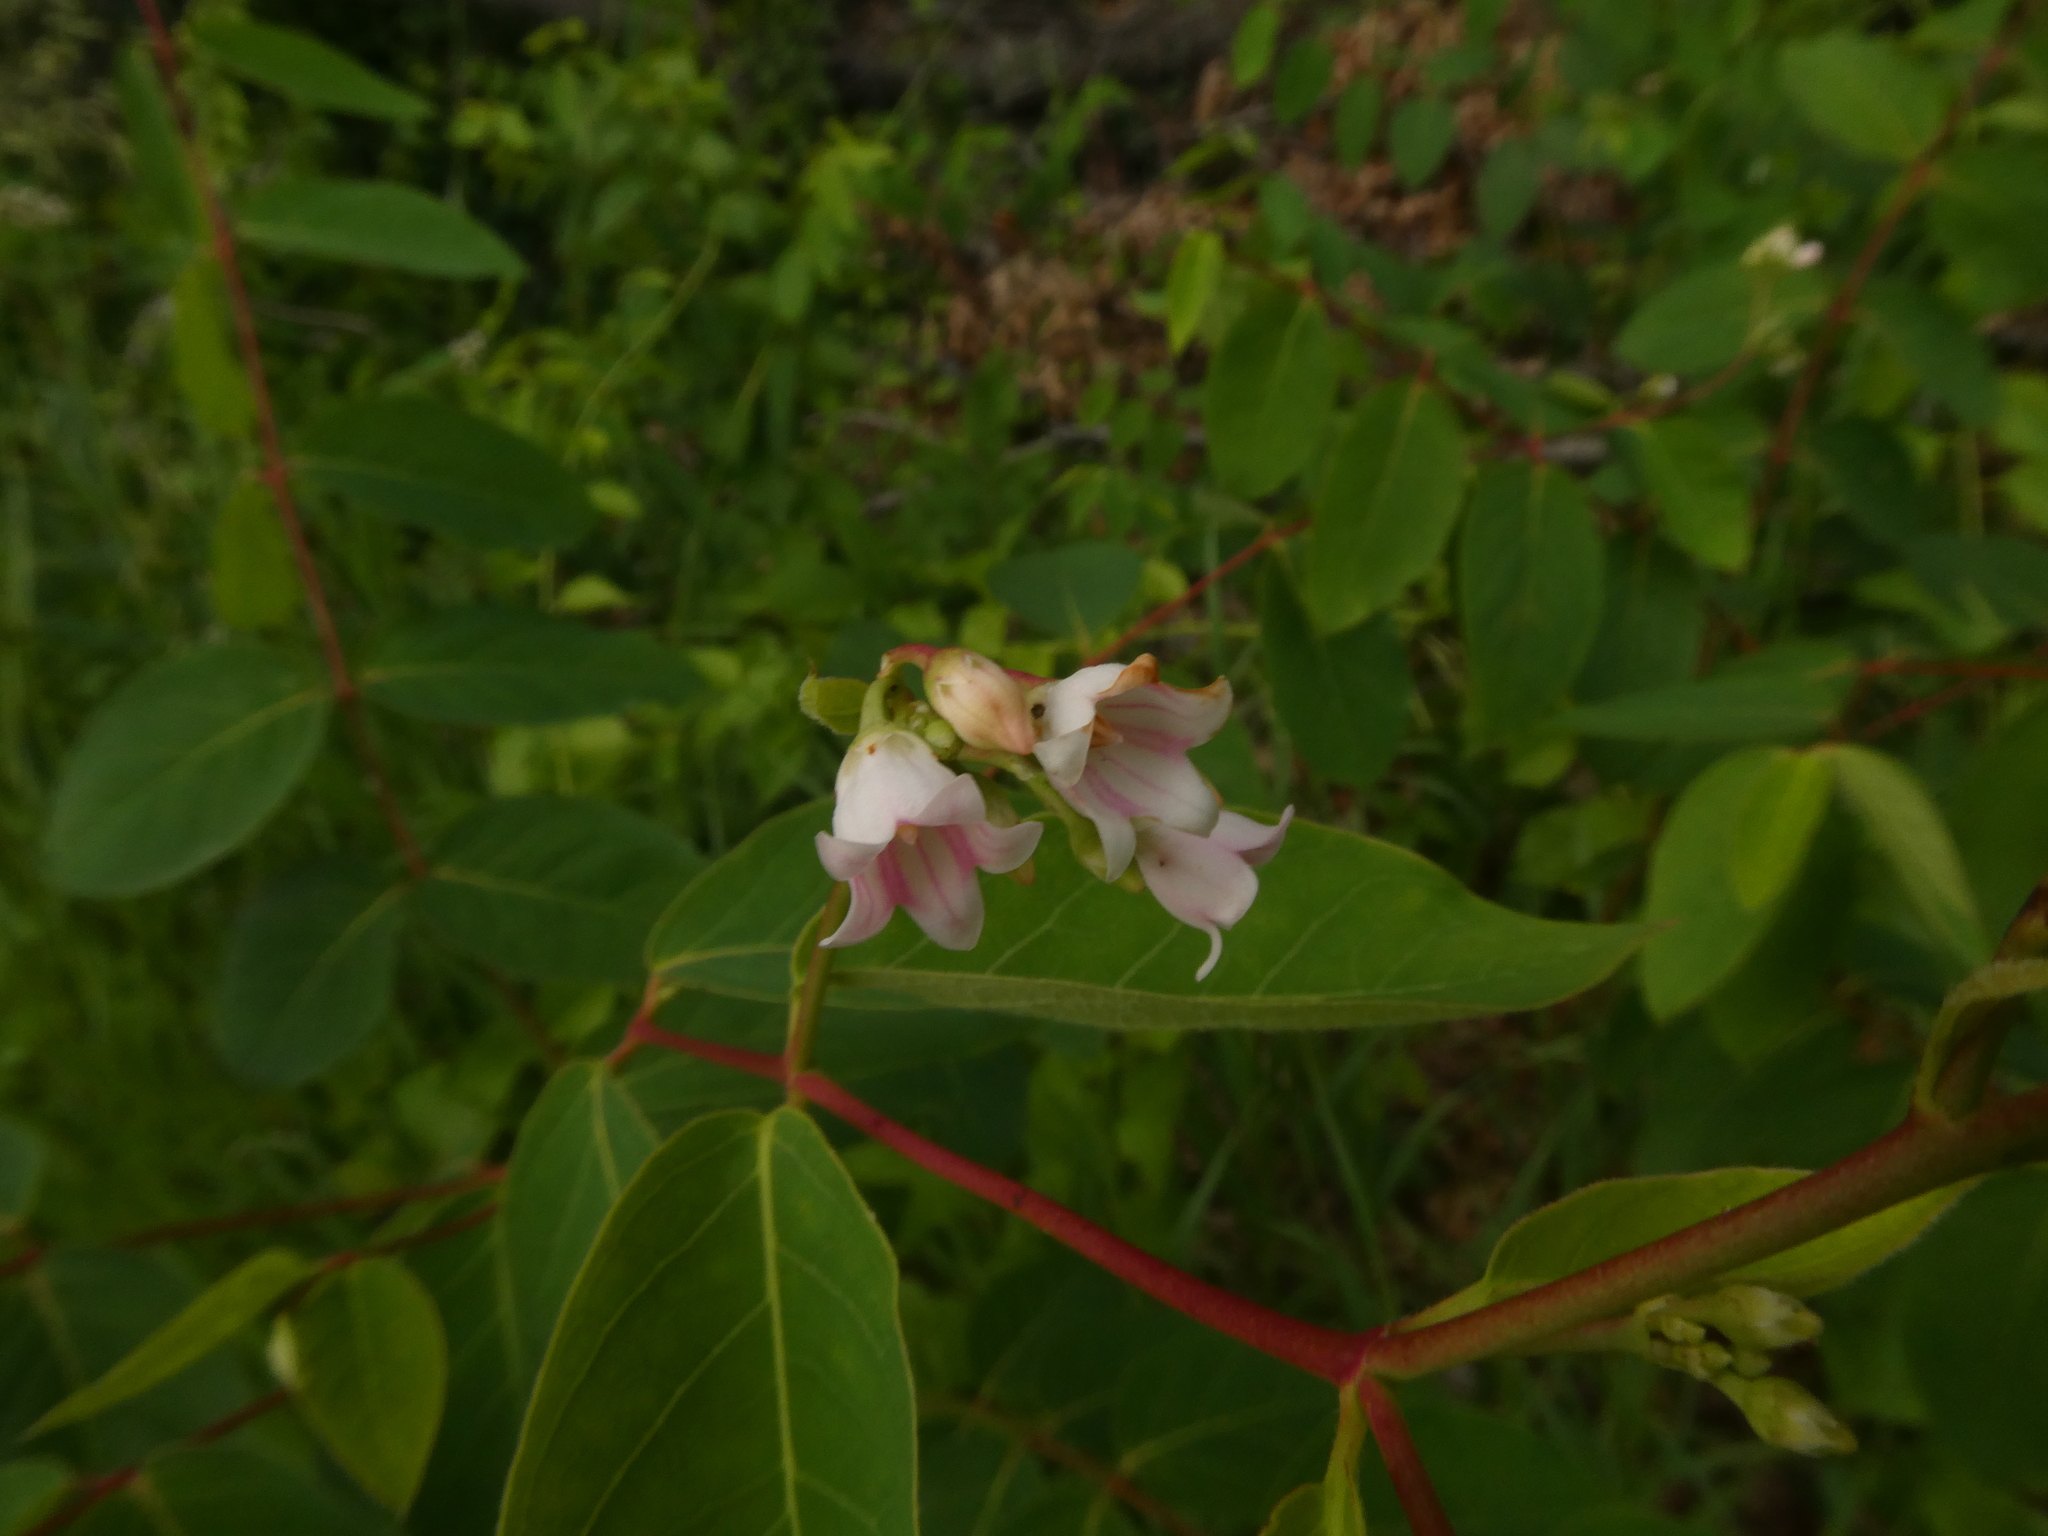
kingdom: Plantae
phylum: Tracheophyta
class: Magnoliopsida
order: Gentianales
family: Apocynaceae
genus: Apocynum
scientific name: Apocynum androsaemifolium
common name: Spreading dogbane
